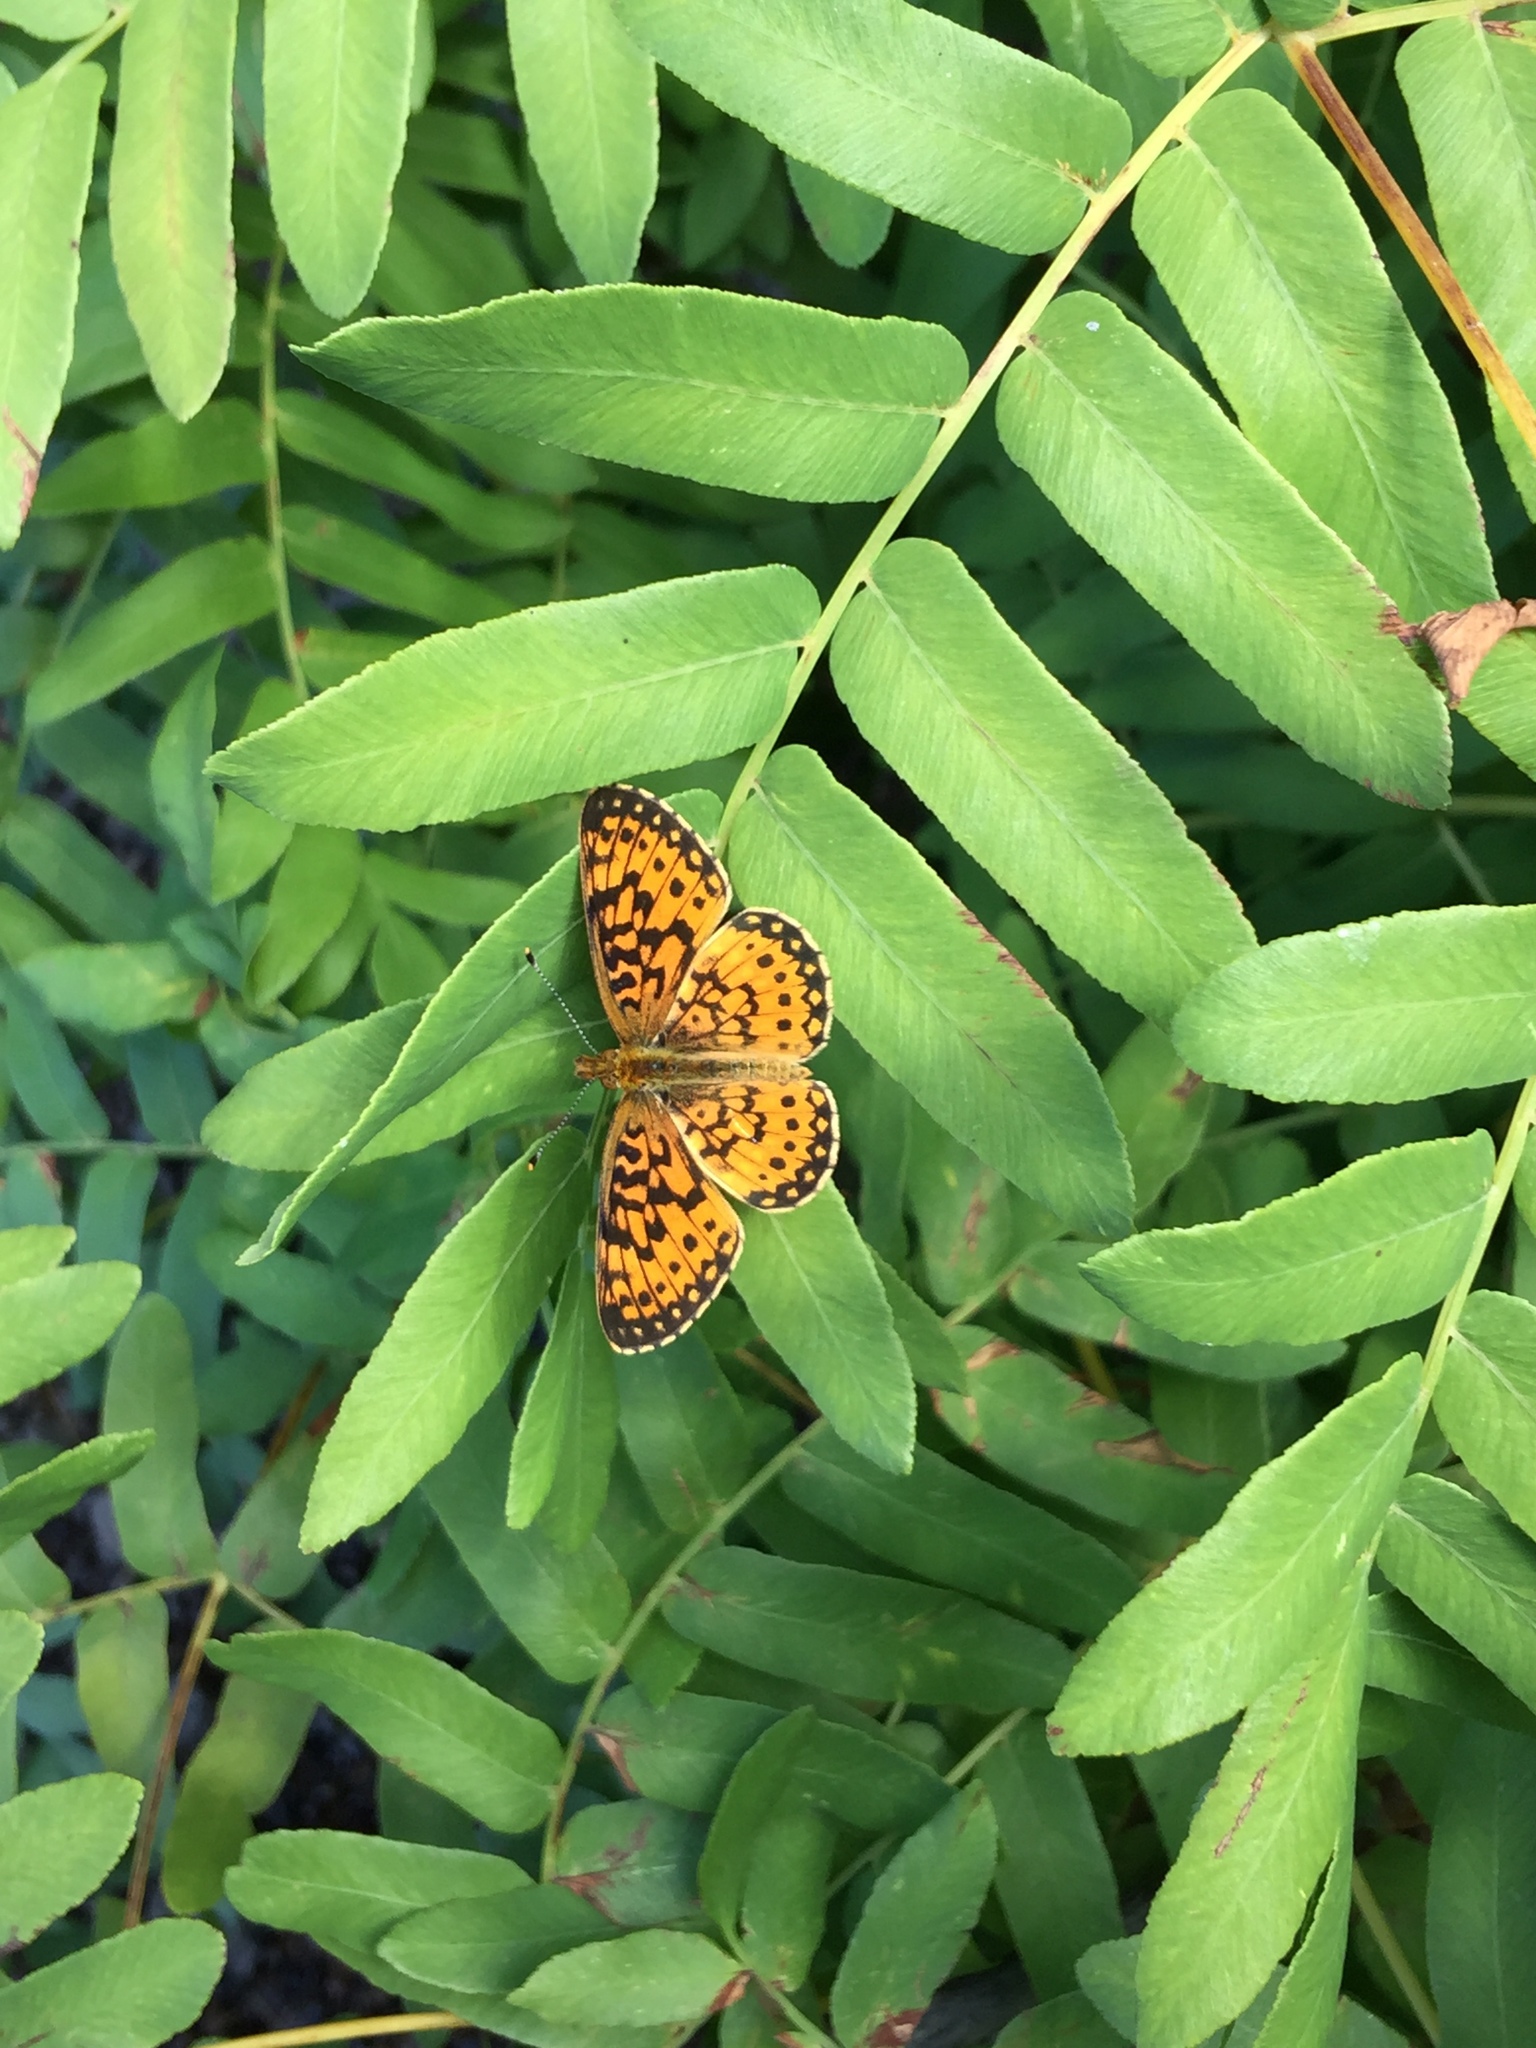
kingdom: Animalia
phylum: Arthropoda
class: Insecta
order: Lepidoptera
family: Nymphalidae
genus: Boloria
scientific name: Boloria
